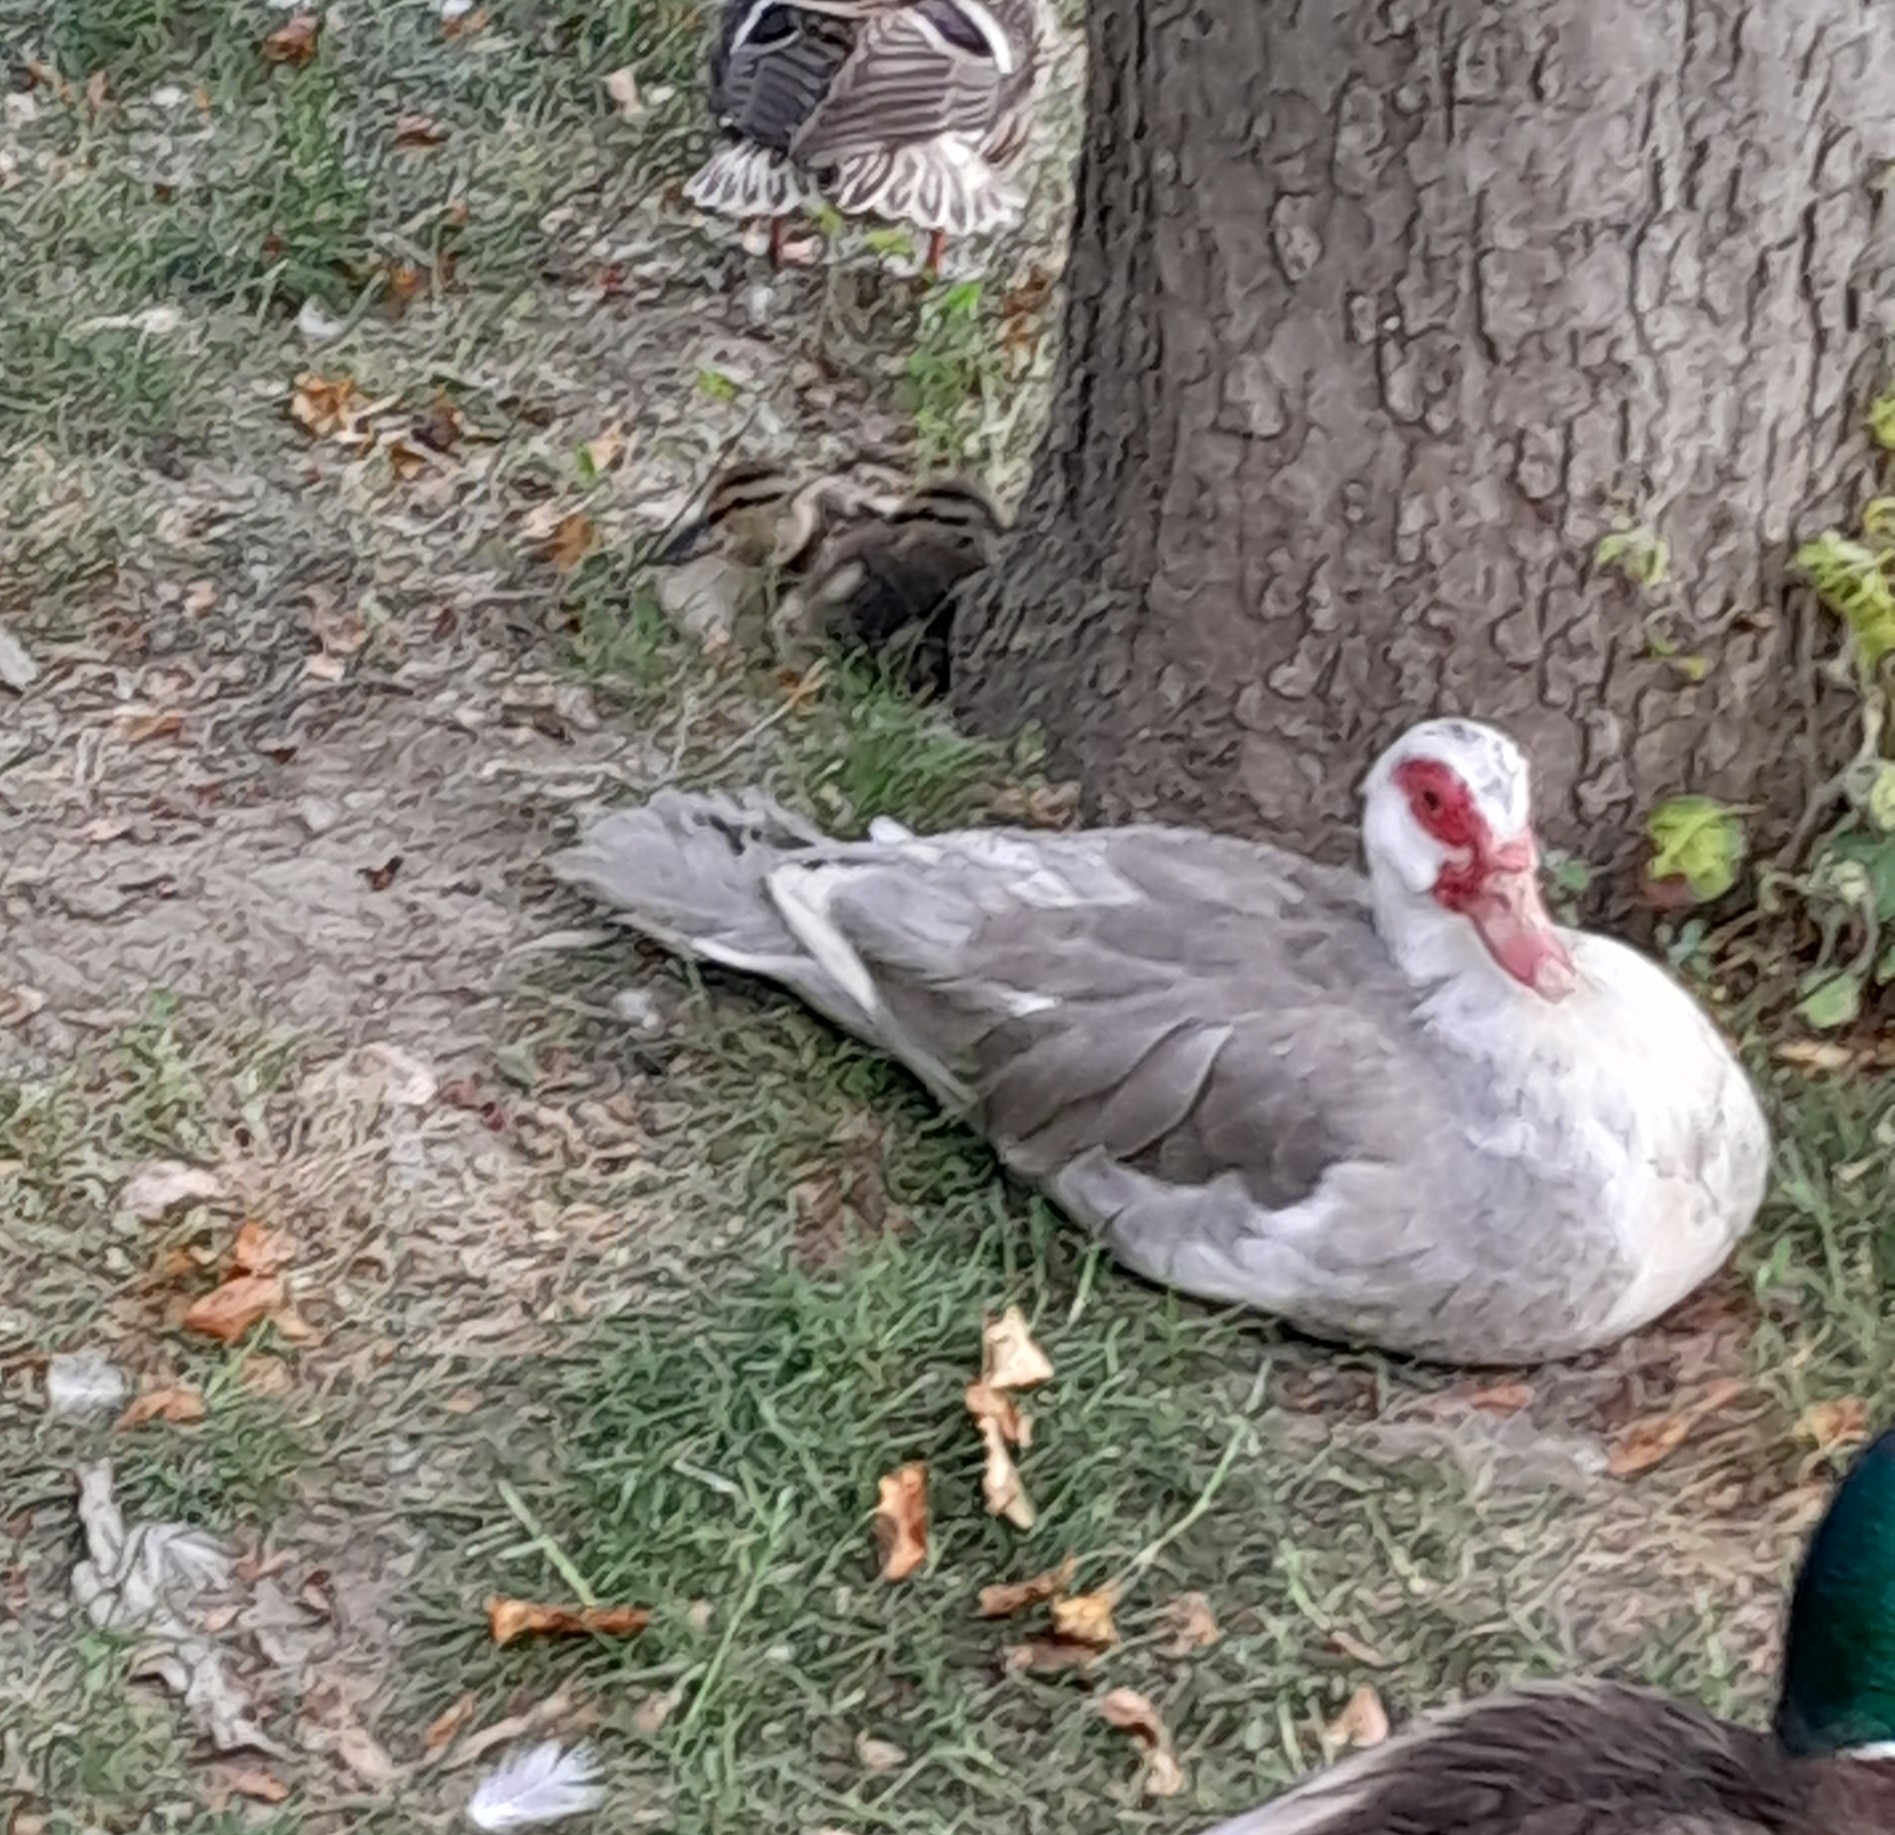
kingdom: Animalia
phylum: Chordata
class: Aves
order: Anseriformes
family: Anatidae
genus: Cairina
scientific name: Cairina moschata
